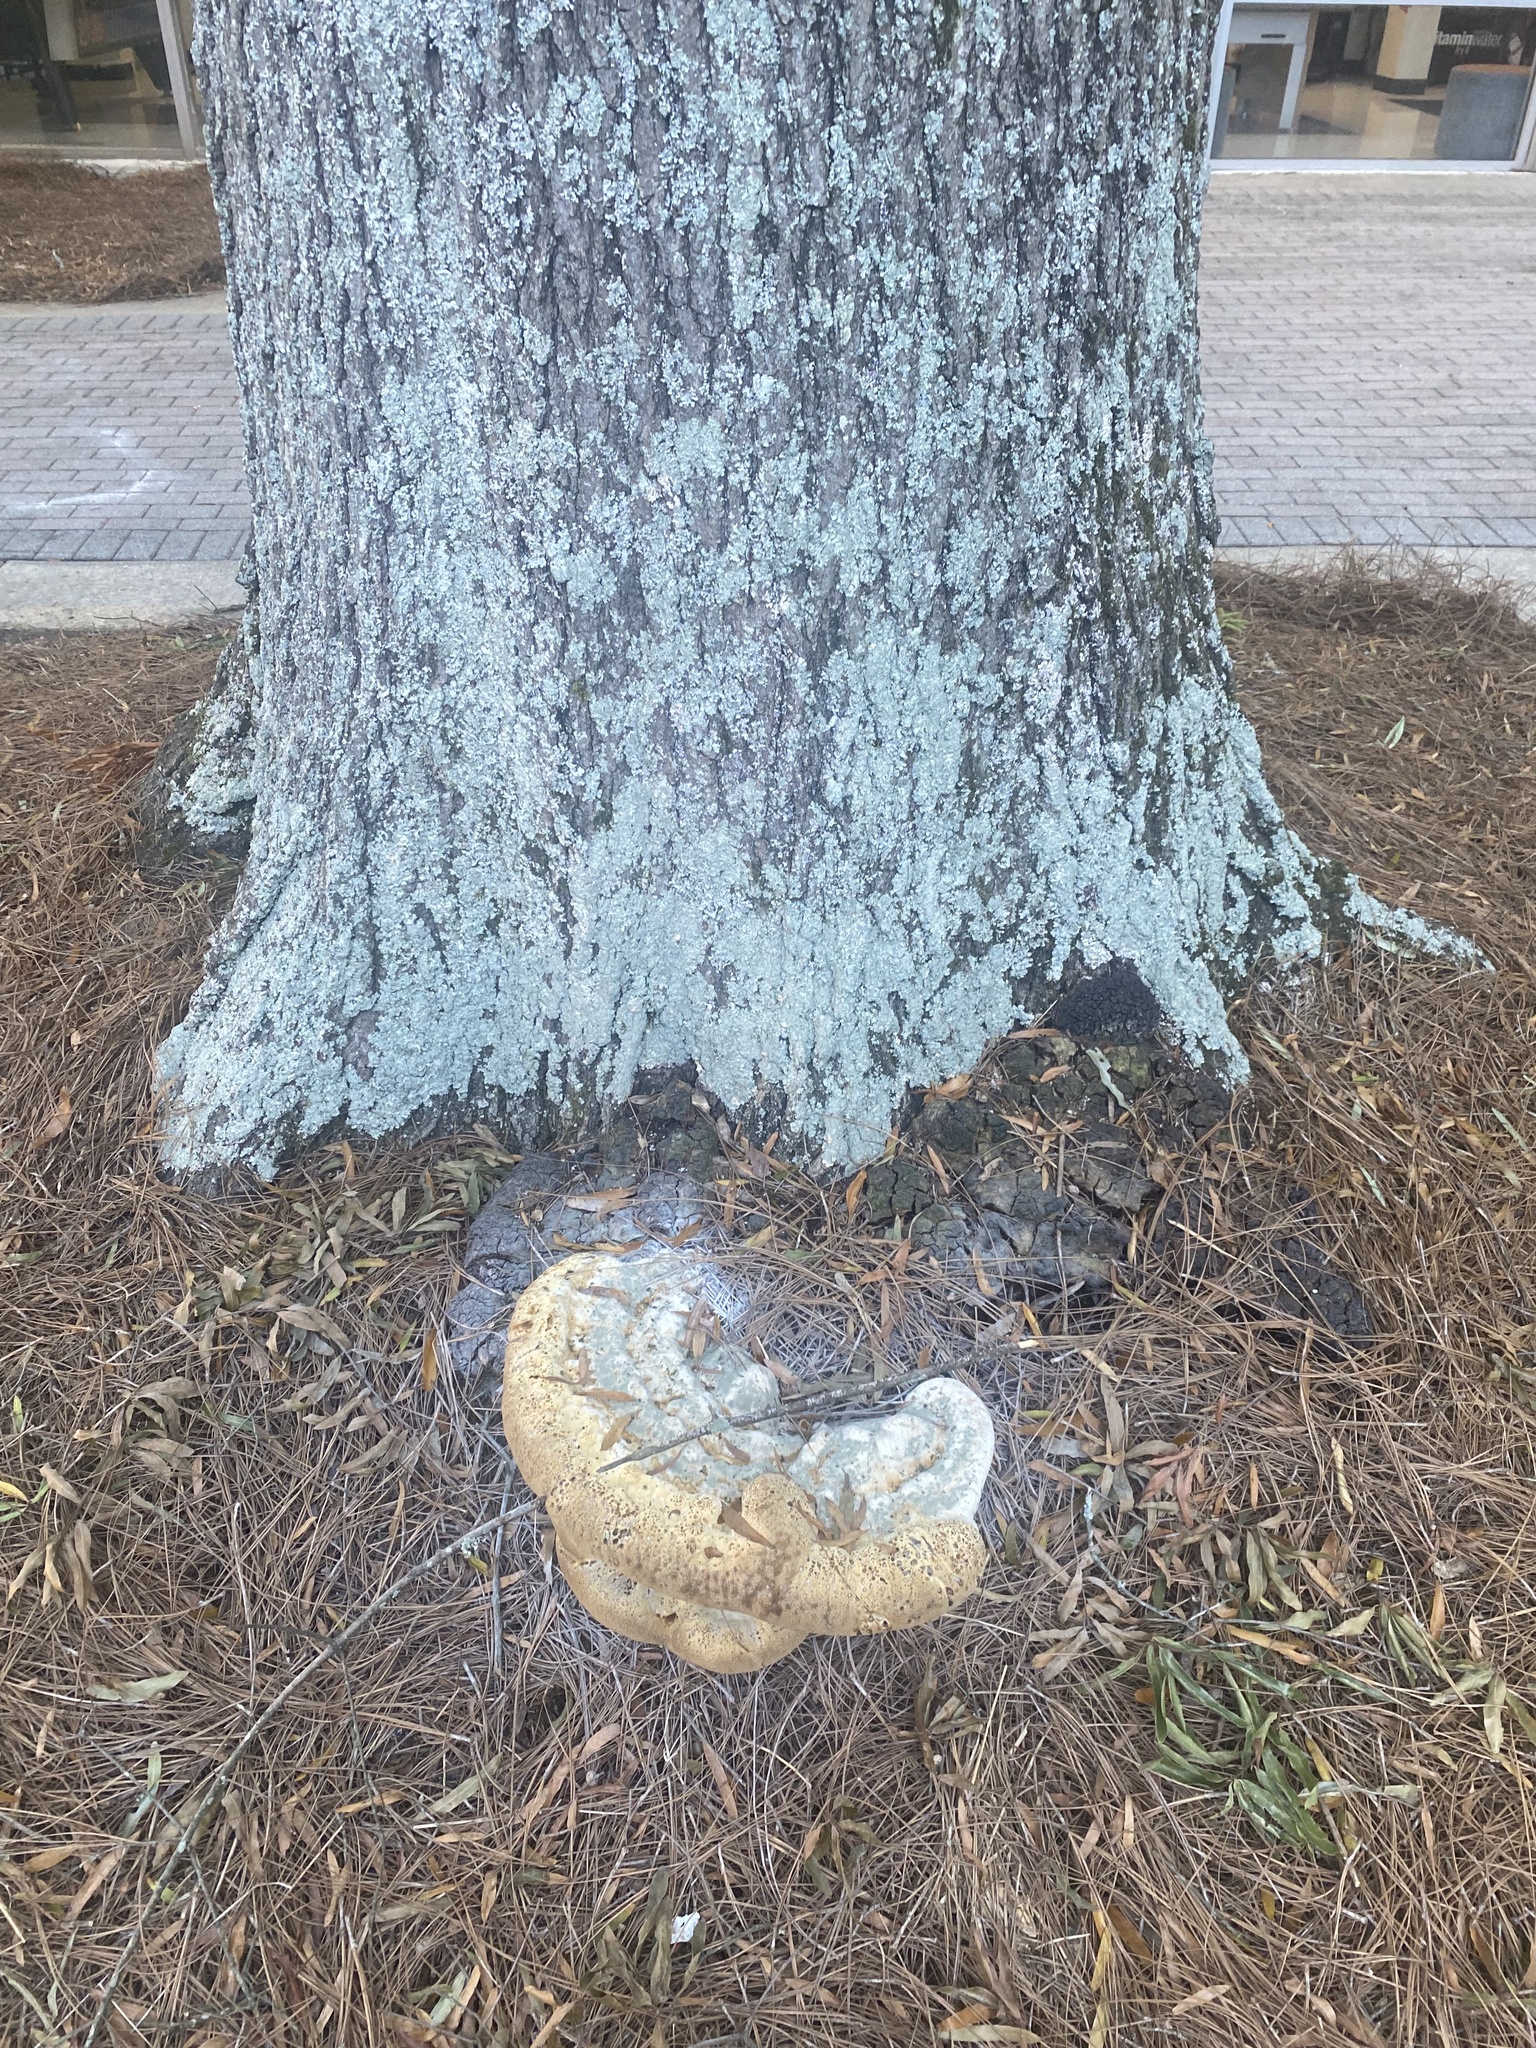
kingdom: Fungi
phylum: Basidiomycota
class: Agaricomycetes
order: Hymenochaetales
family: Hymenochaetaceae
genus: Pseudoinonotus
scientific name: Pseudoinonotus dryadeus
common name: Oak bracket
